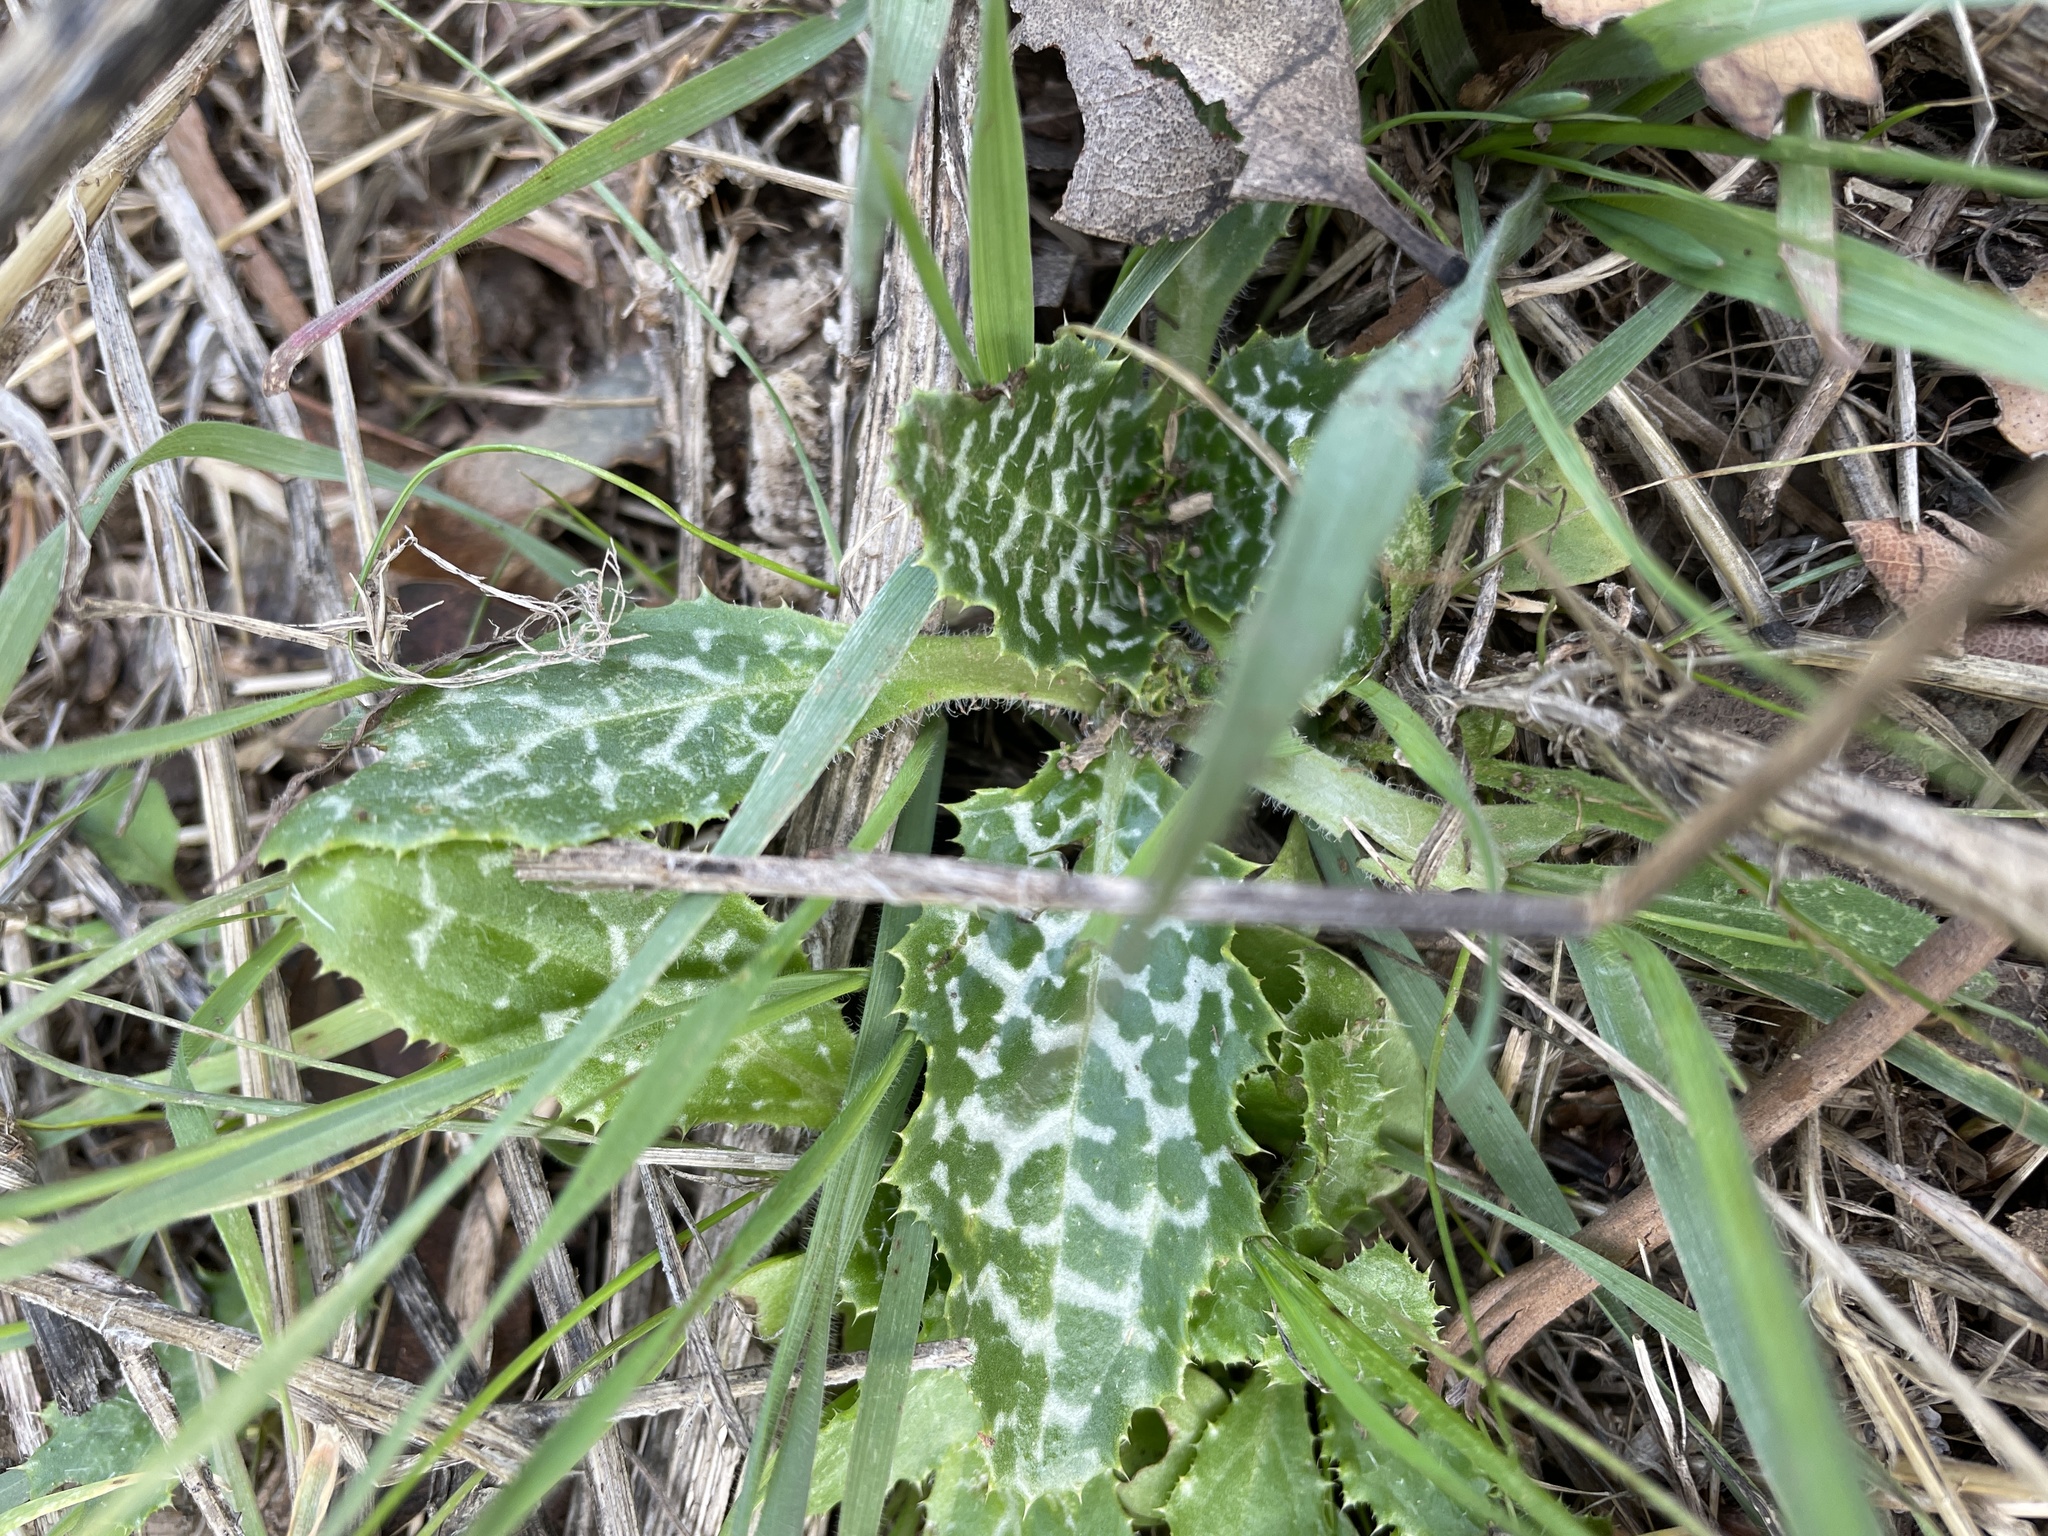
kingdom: Plantae
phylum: Tracheophyta
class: Magnoliopsida
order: Asterales
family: Asteraceae
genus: Silybum
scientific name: Silybum marianum
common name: Milk thistle
